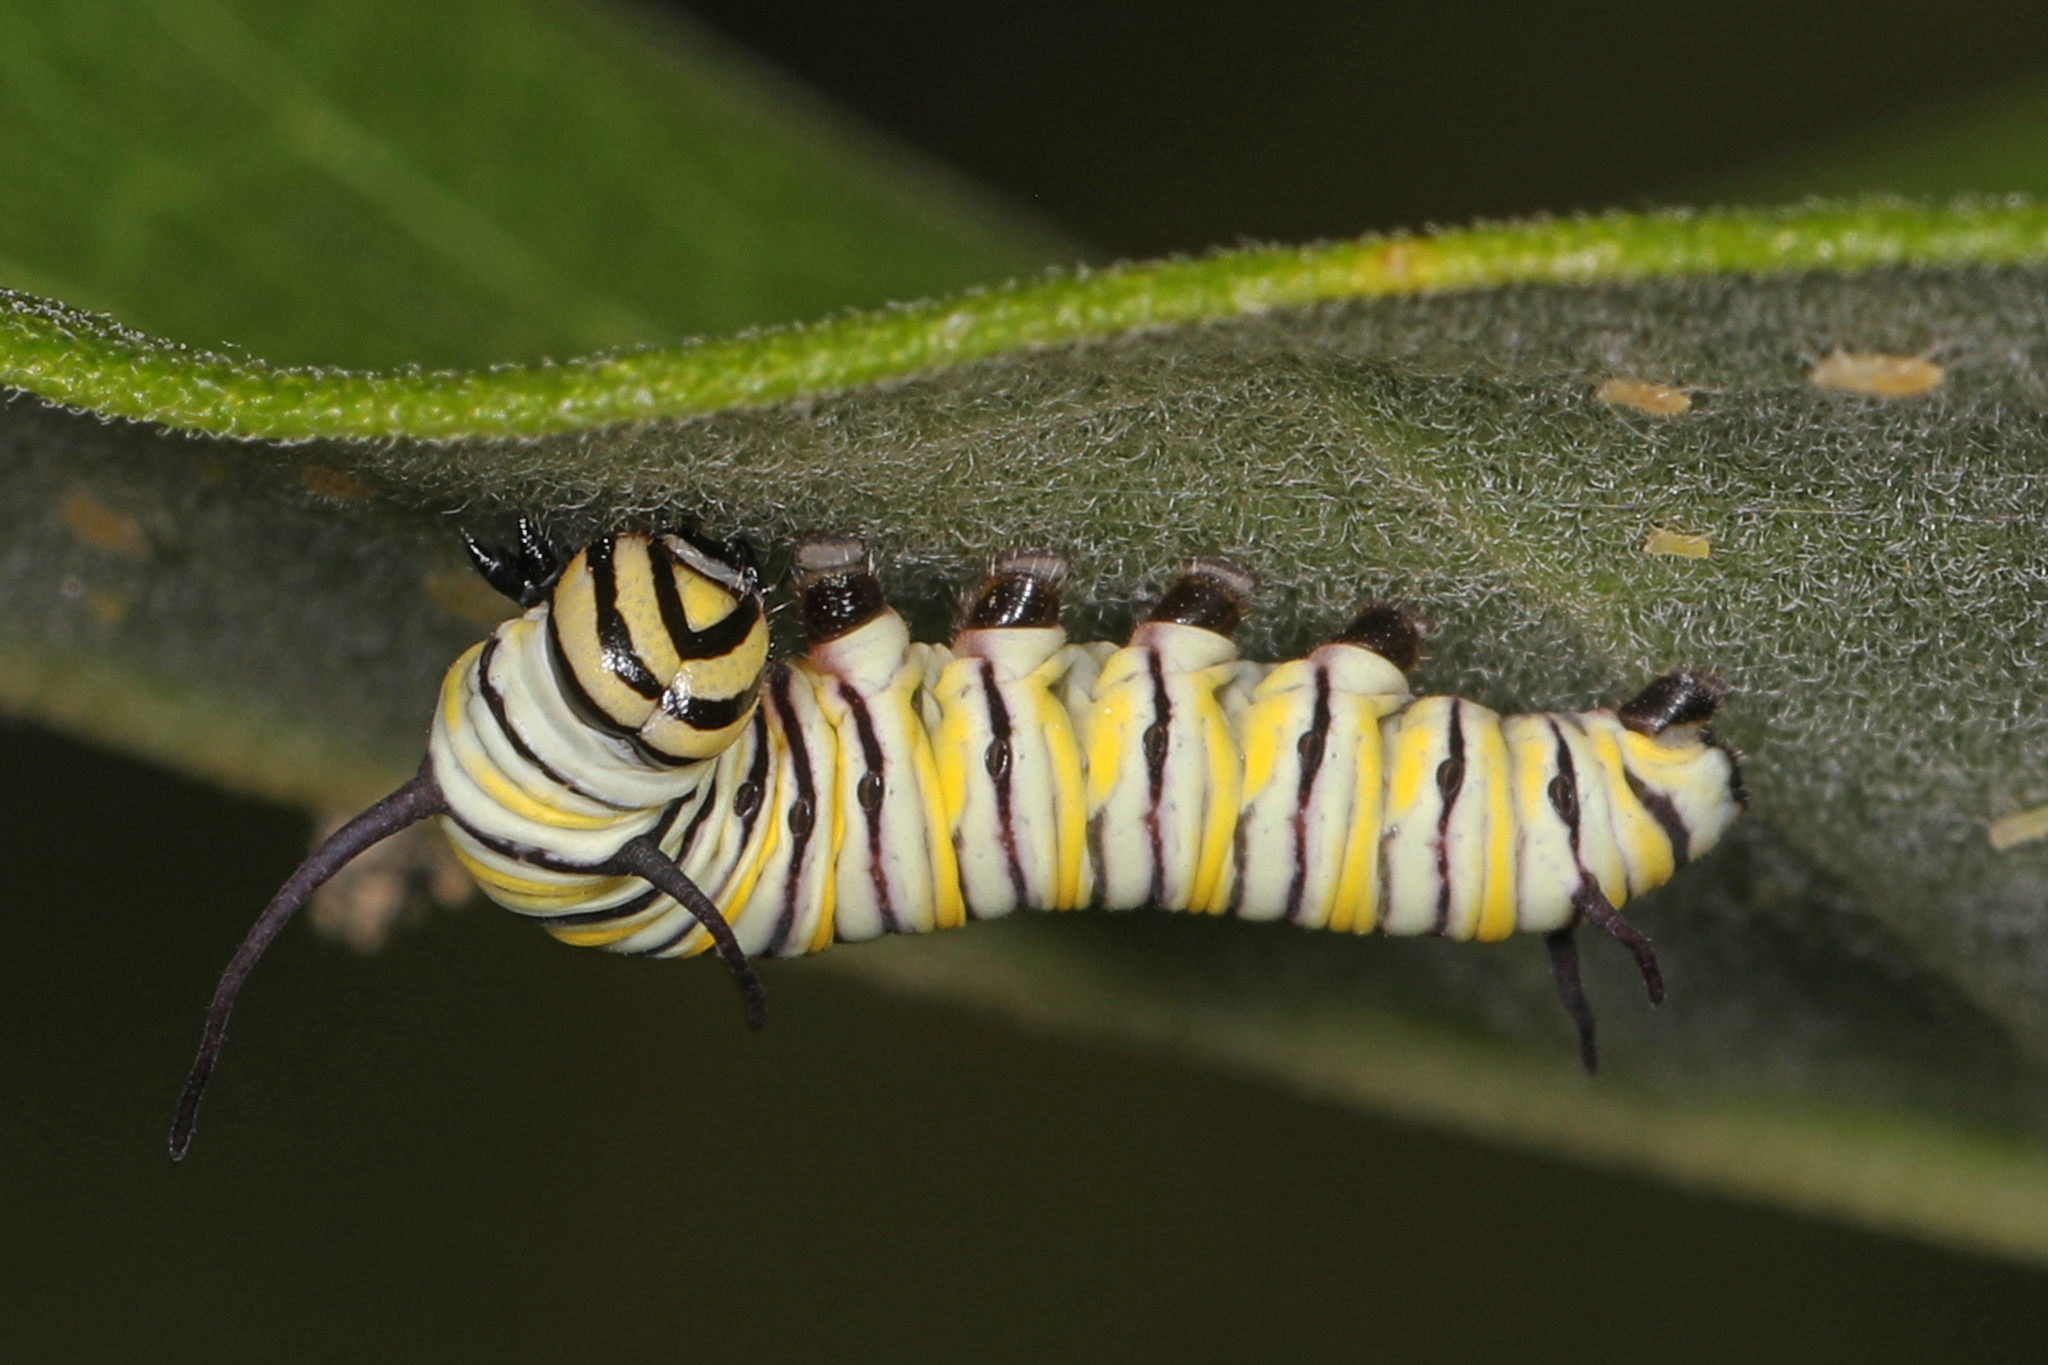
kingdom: Animalia
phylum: Arthropoda
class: Insecta
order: Lepidoptera
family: Nymphalidae
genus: Danaus
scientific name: Danaus plexippus
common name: Monarch
